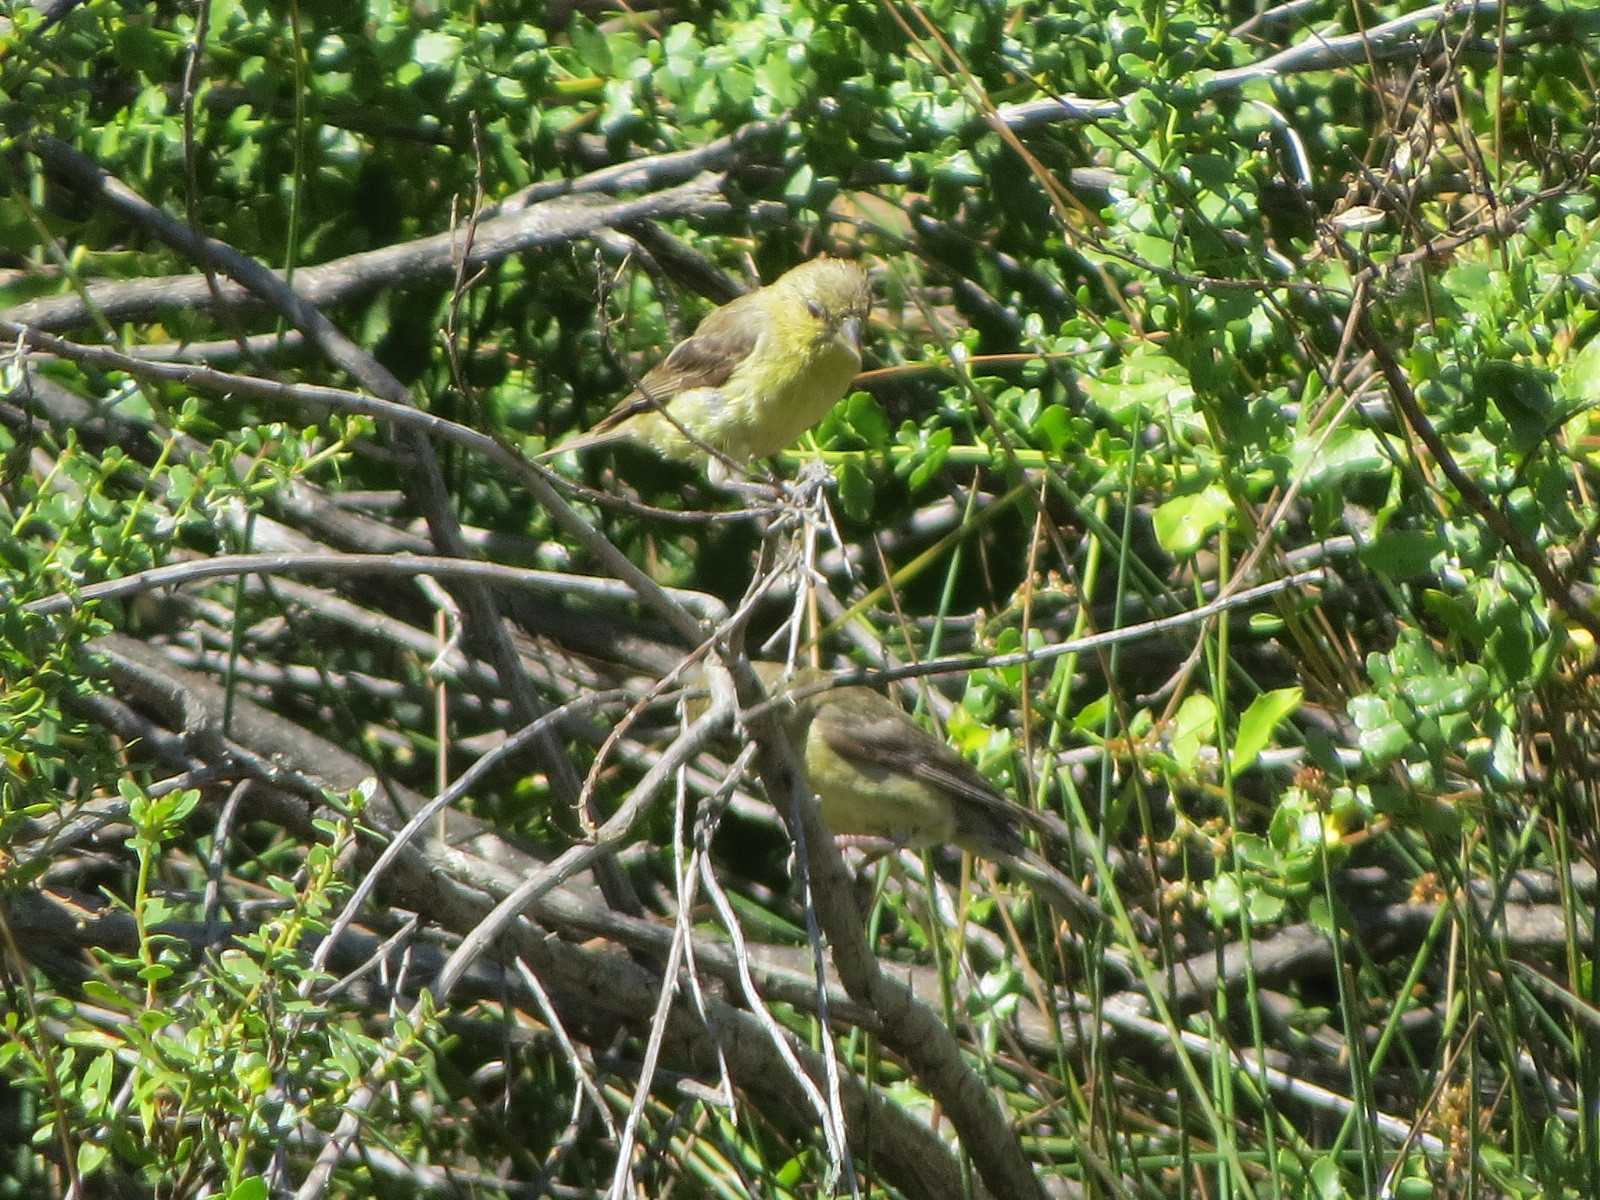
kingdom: Animalia
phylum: Chordata
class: Aves
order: Passeriformes
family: Fringillidae
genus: Spinus
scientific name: Spinus psaltria
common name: Lesser goldfinch
